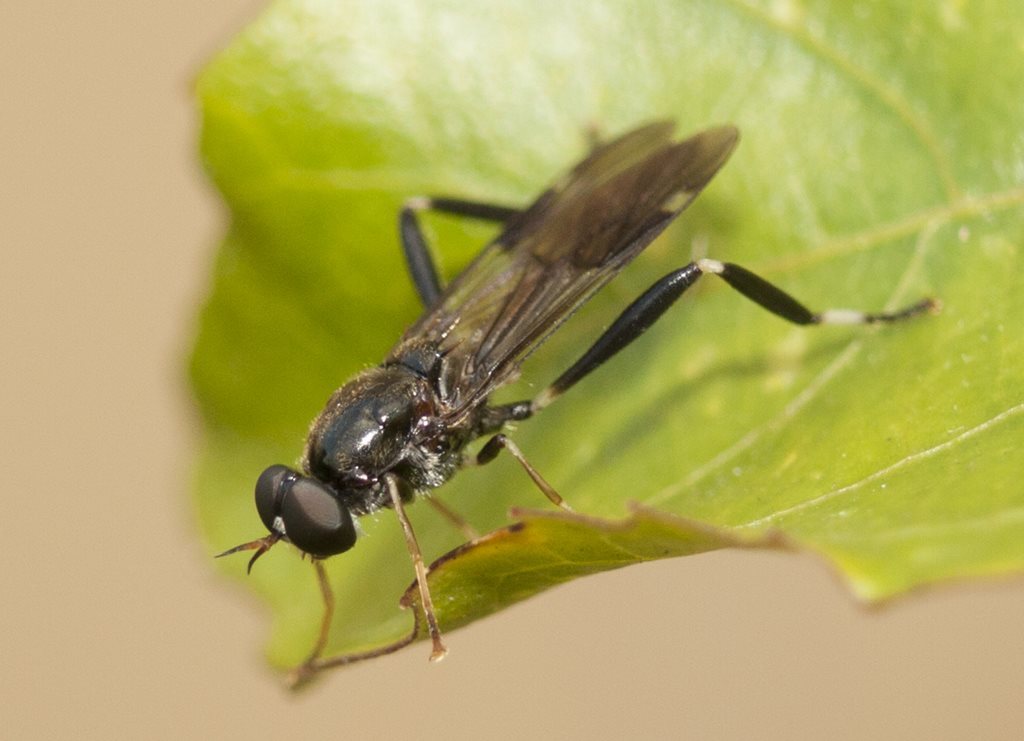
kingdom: Animalia
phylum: Arthropoda
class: Insecta
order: Diptera
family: Stratiomyidae
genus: Exaireta
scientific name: Exaireta spinigera
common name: Blue soldier fly
